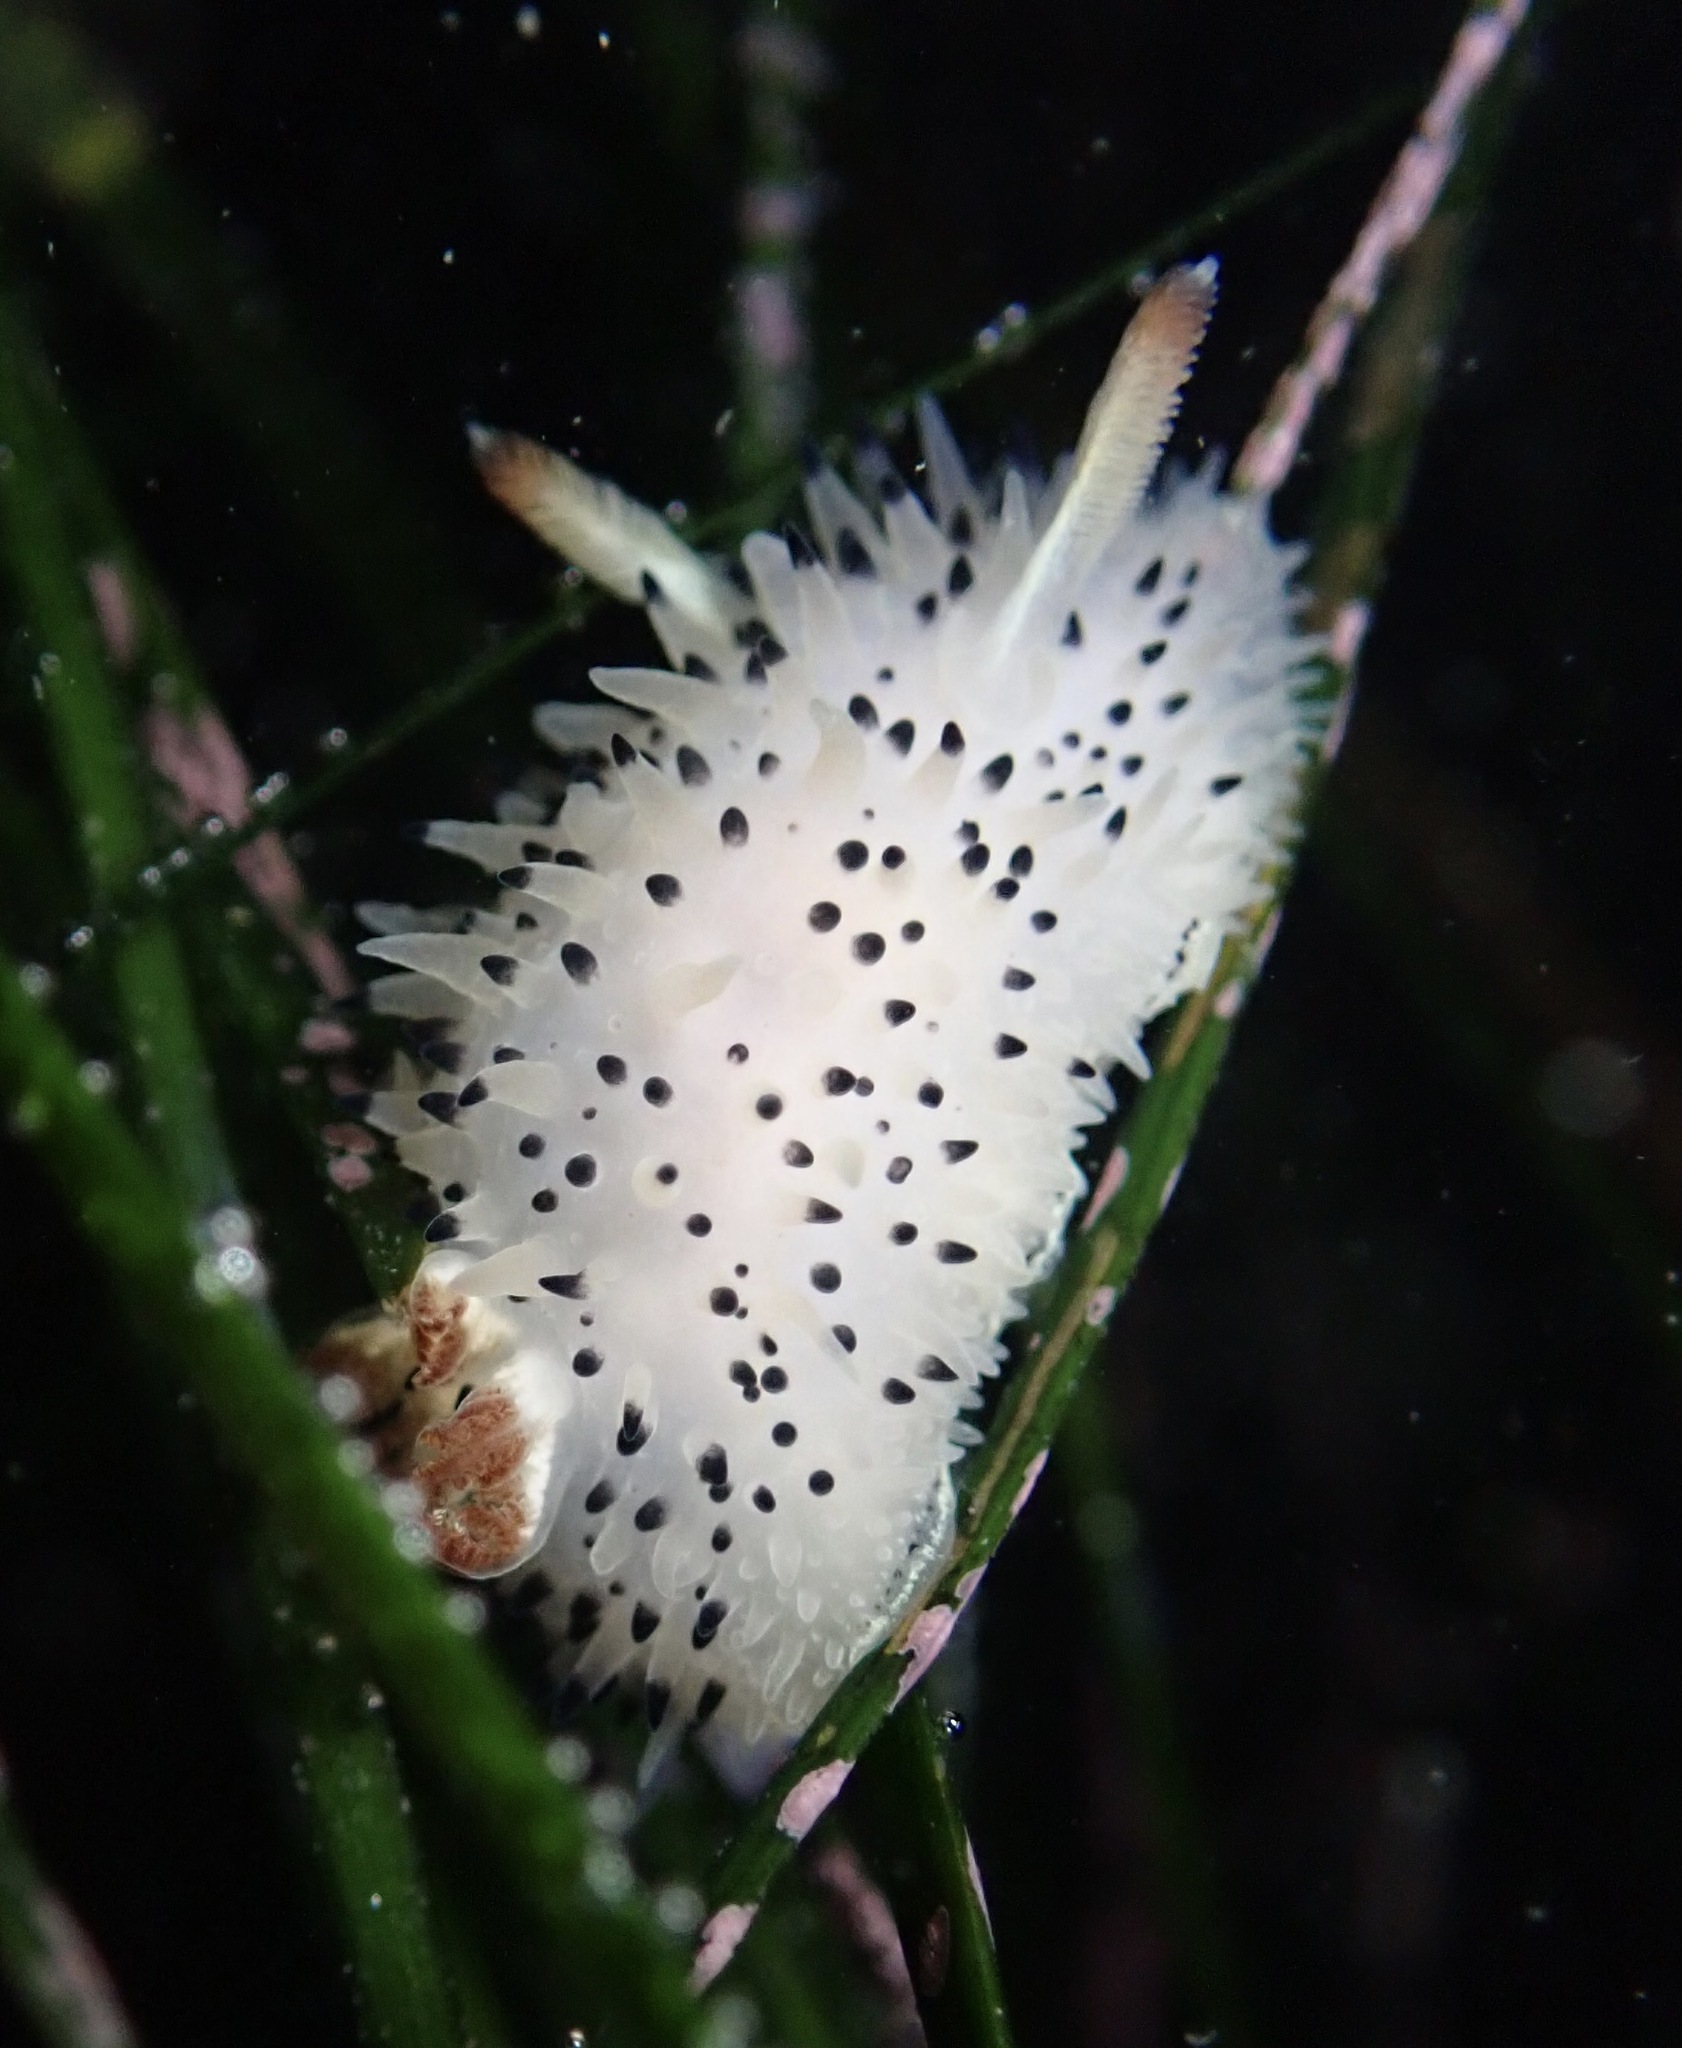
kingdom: Animalia
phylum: Mollusca
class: Gastropoda
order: Nudibranchia
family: Onchidorididae
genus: Acanthodoris
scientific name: Acanthodoris rhodoceras
